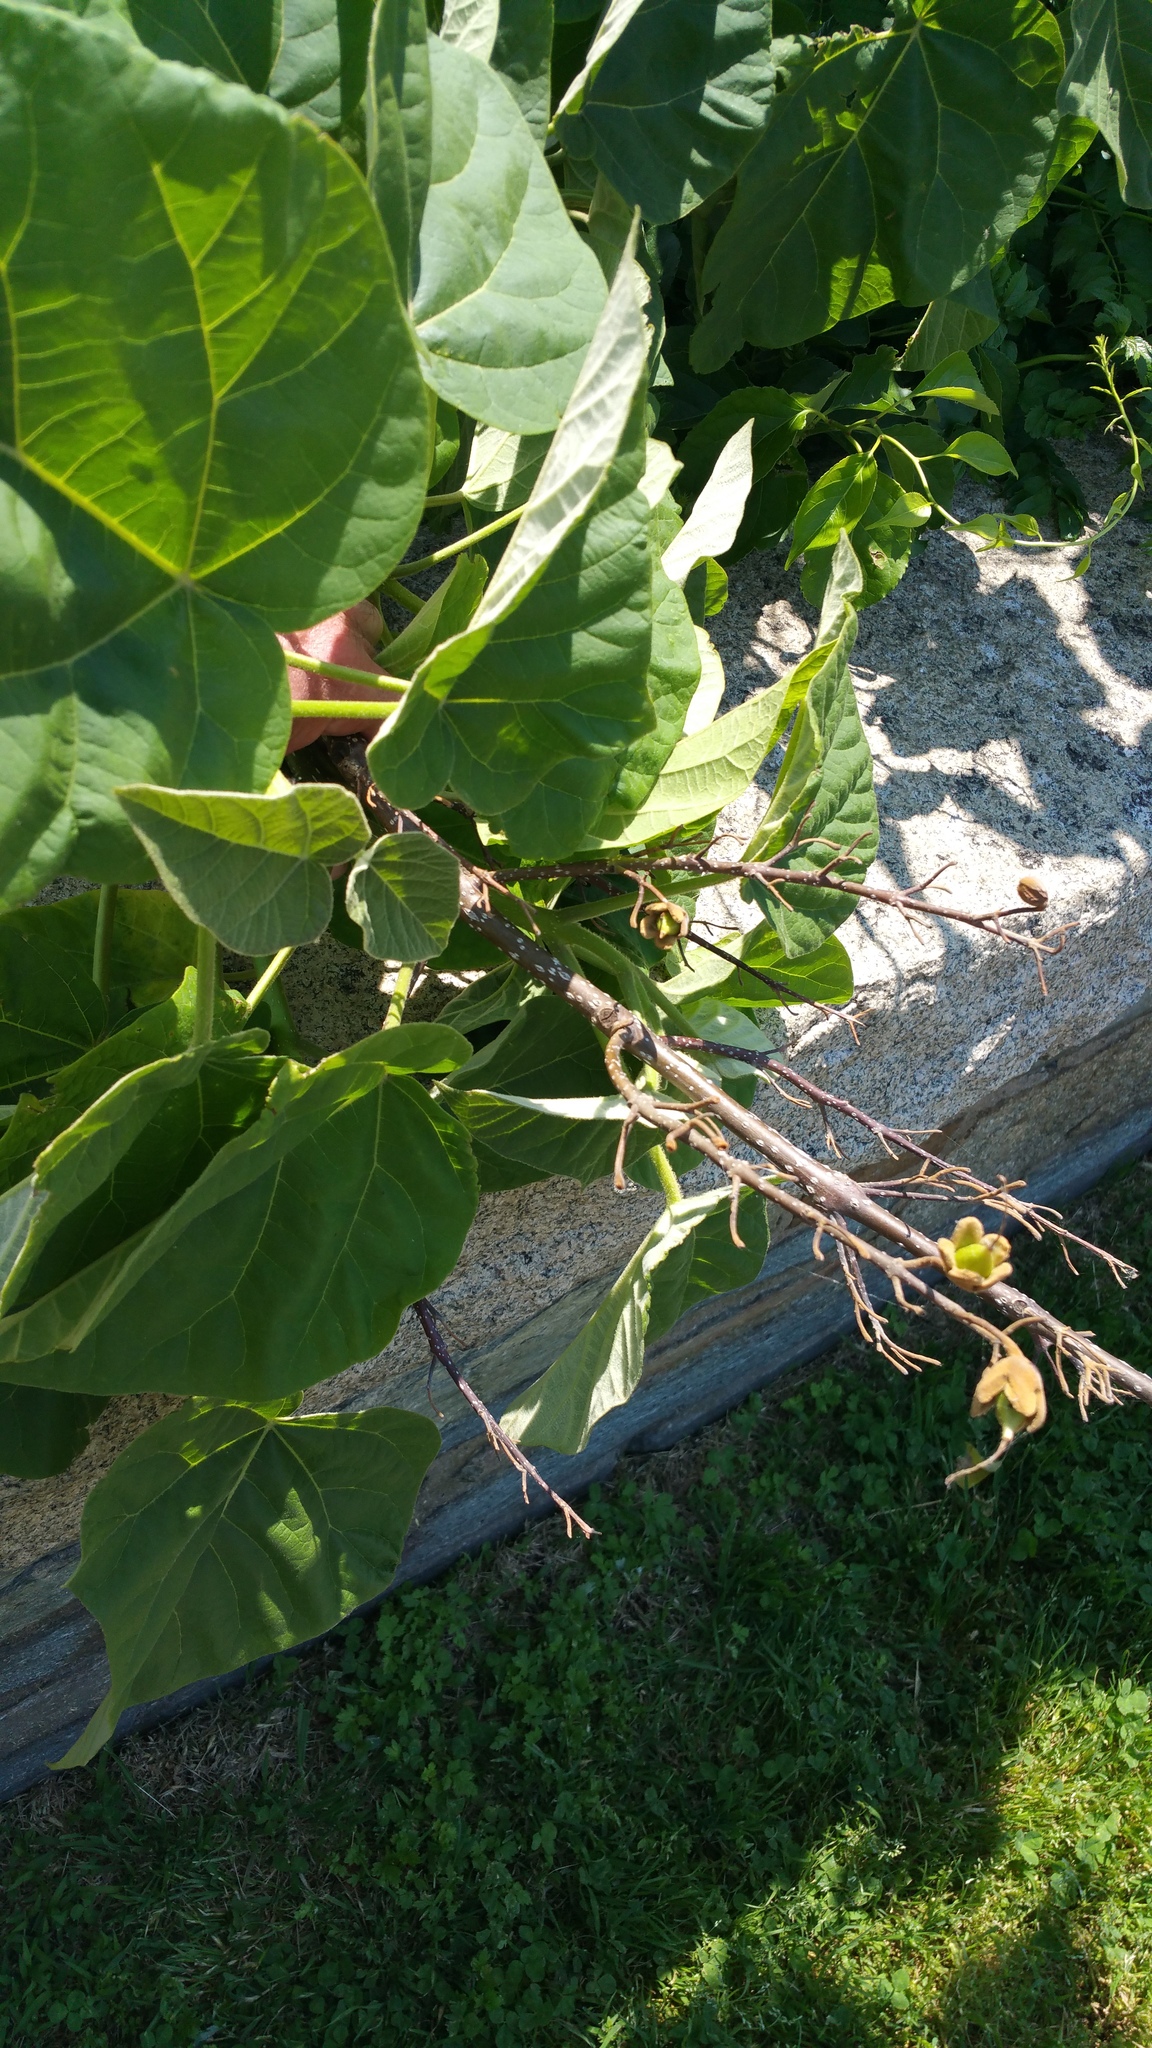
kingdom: Plantae
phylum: Tracheophyta
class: Magnoliopsida
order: Lamiales
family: Paulowniaceae
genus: Paulownia
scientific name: Paulownia tomentosa
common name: Foxglove-tree
